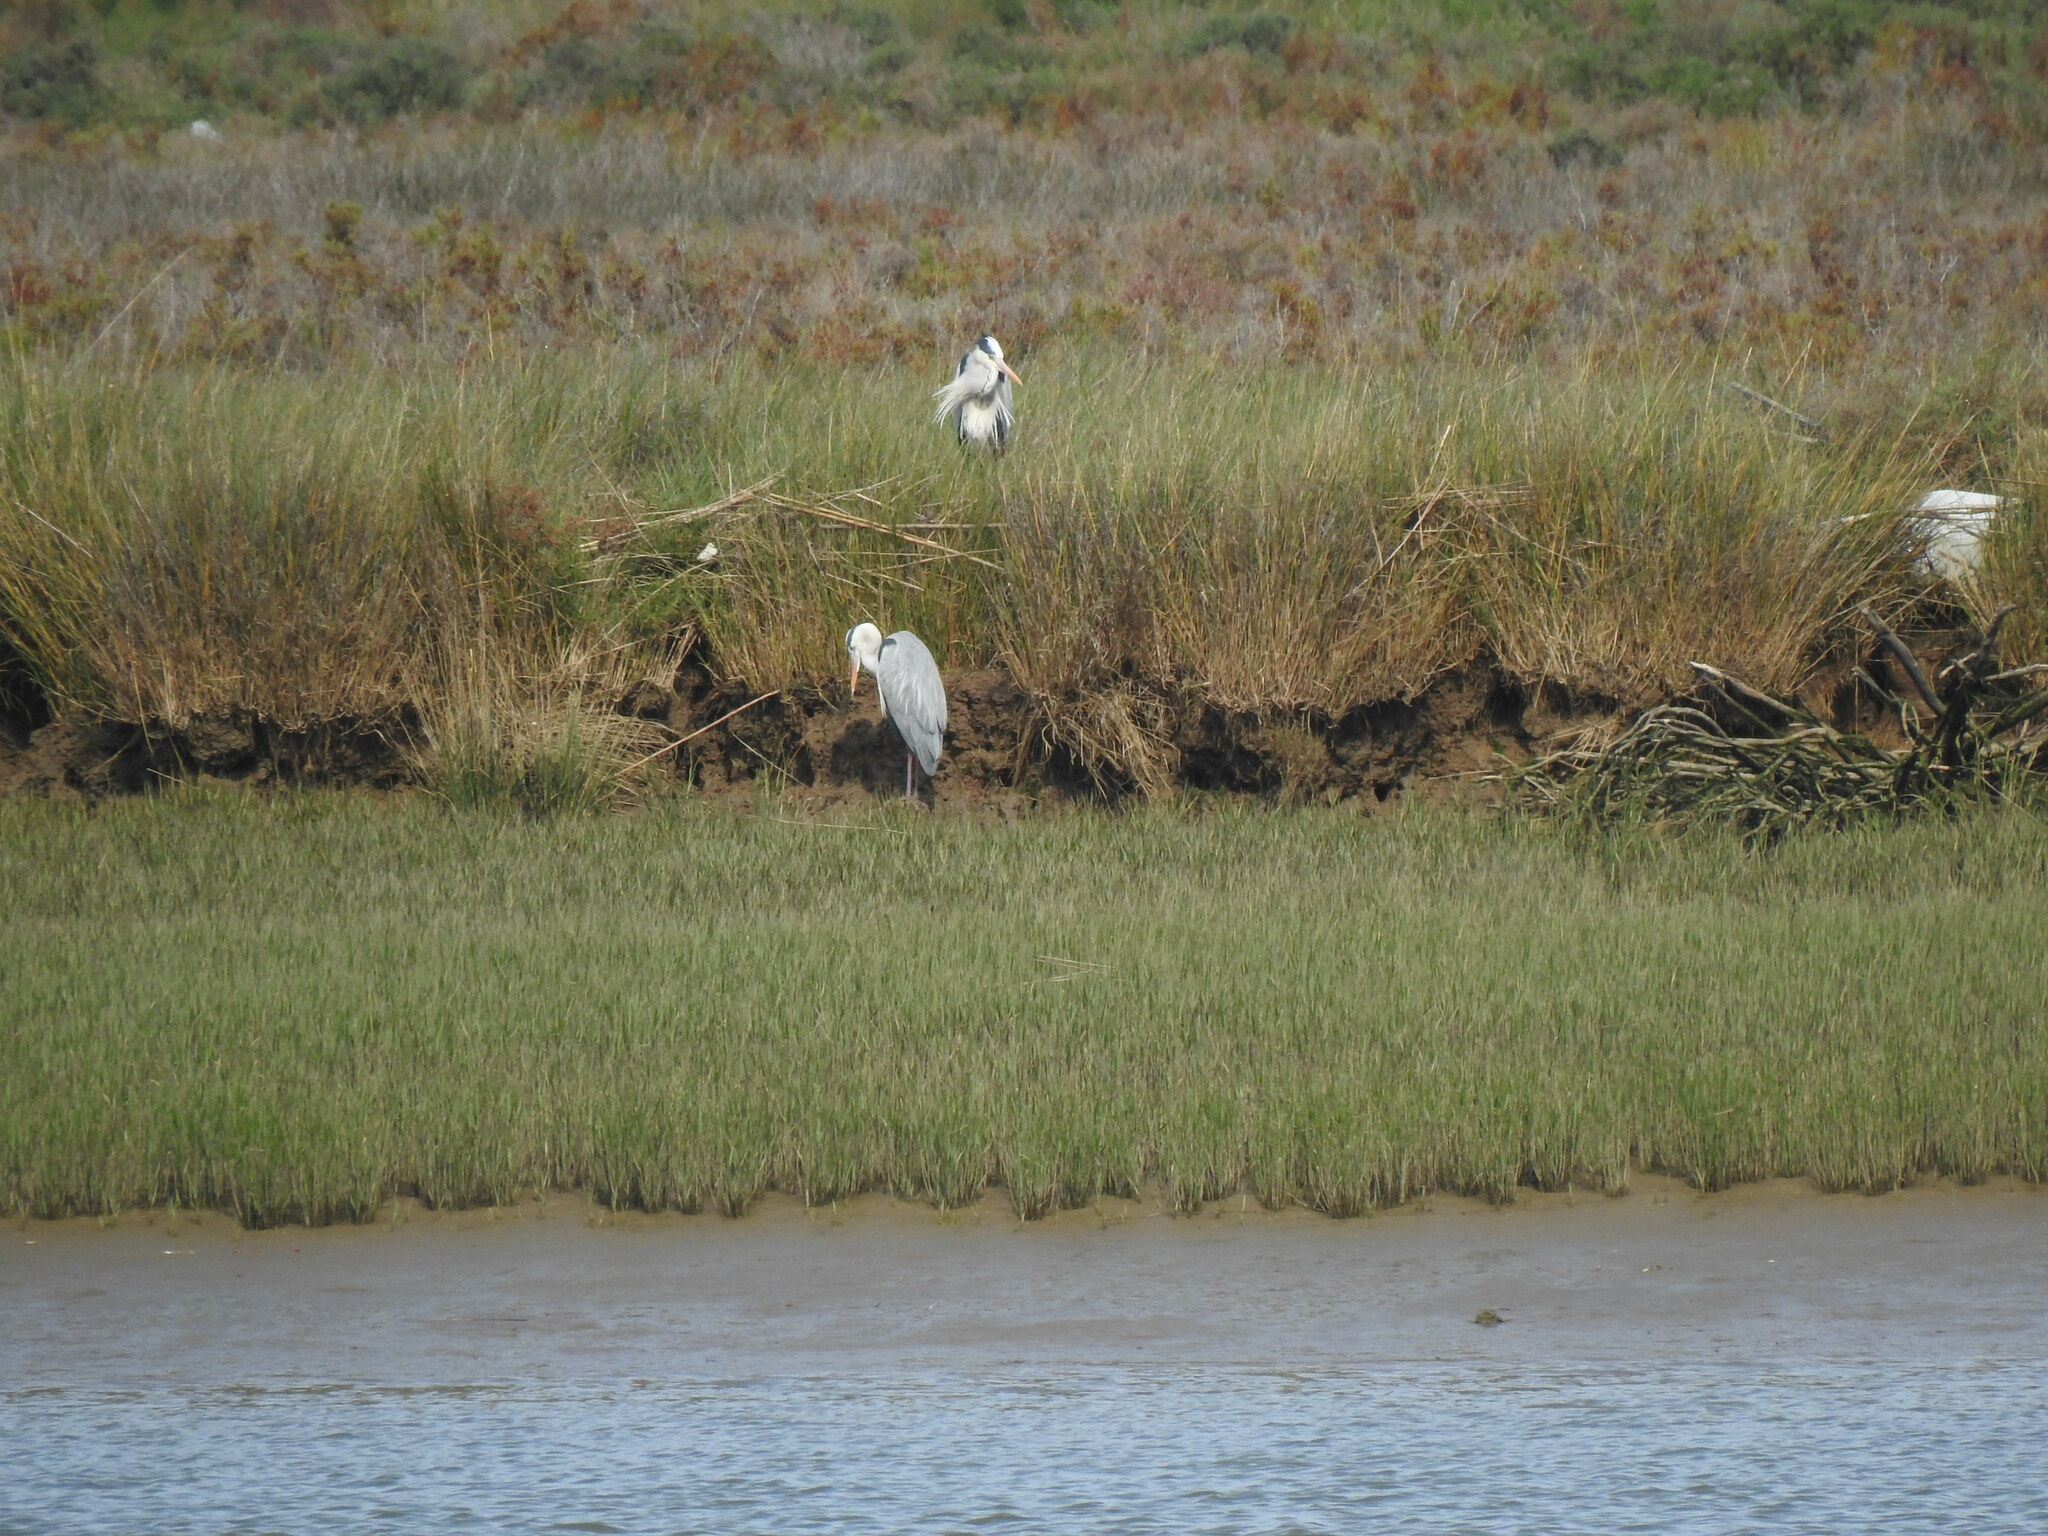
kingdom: Animalia
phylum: Chordata
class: Aves
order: Pelecaniformes
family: Ardeidae
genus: Ardea
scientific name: Ardea cinerea
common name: Grey heron
